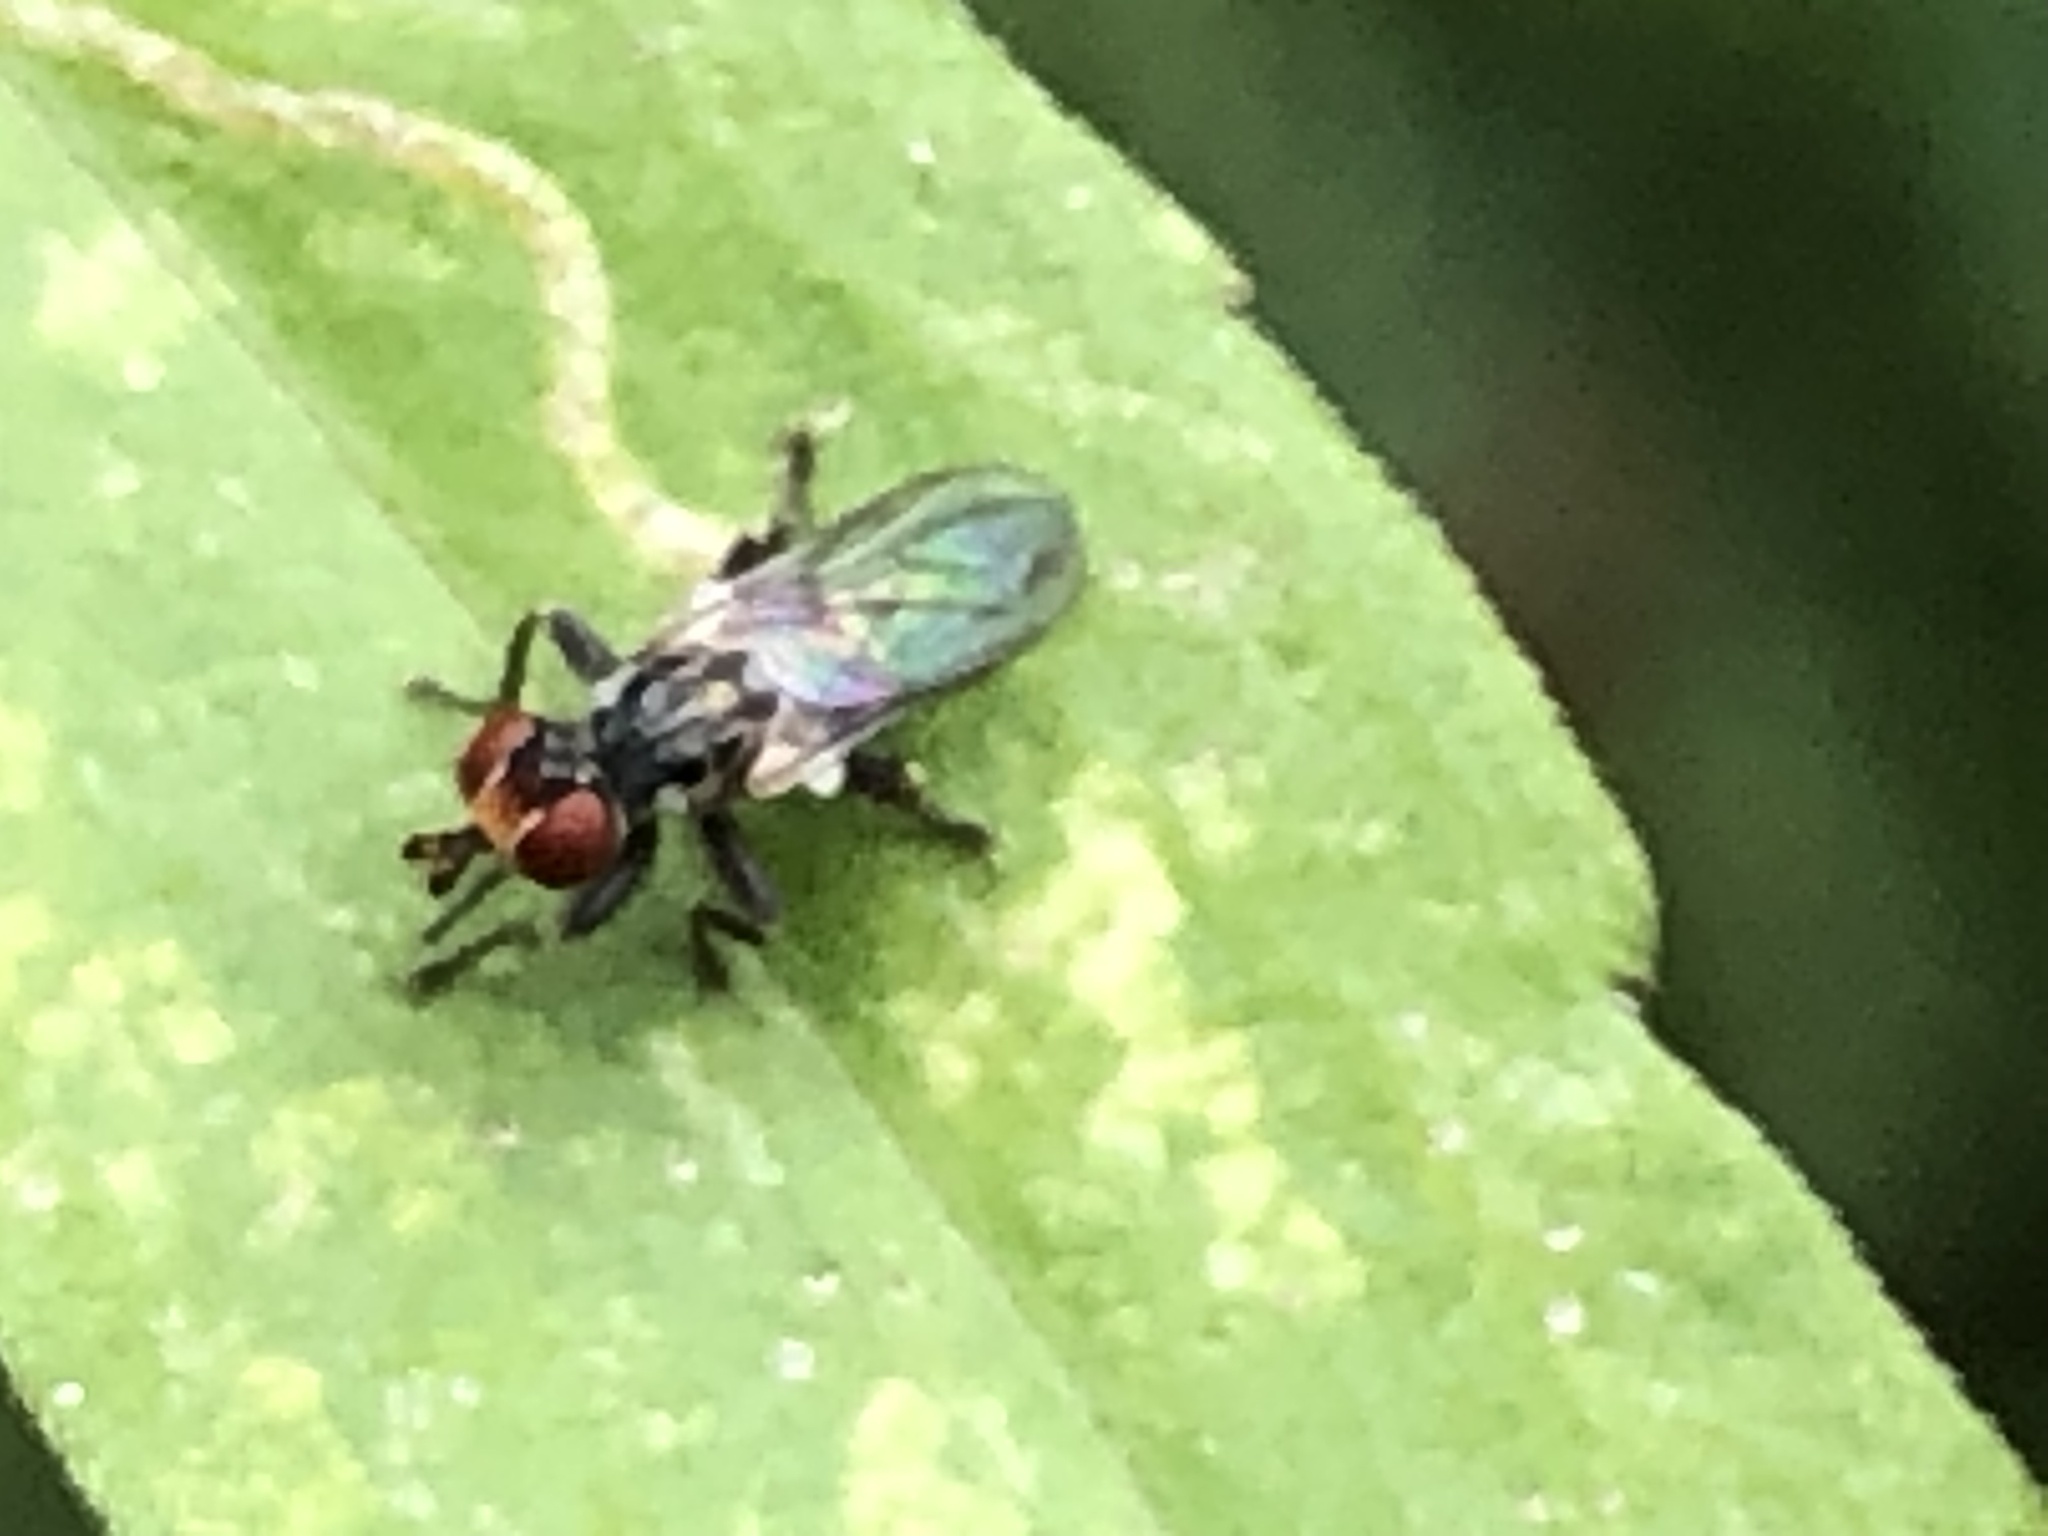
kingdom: Animalia
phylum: Arthropoda
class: Insecta
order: Diptera
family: Conopidae
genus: Zodion
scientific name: Zodion
